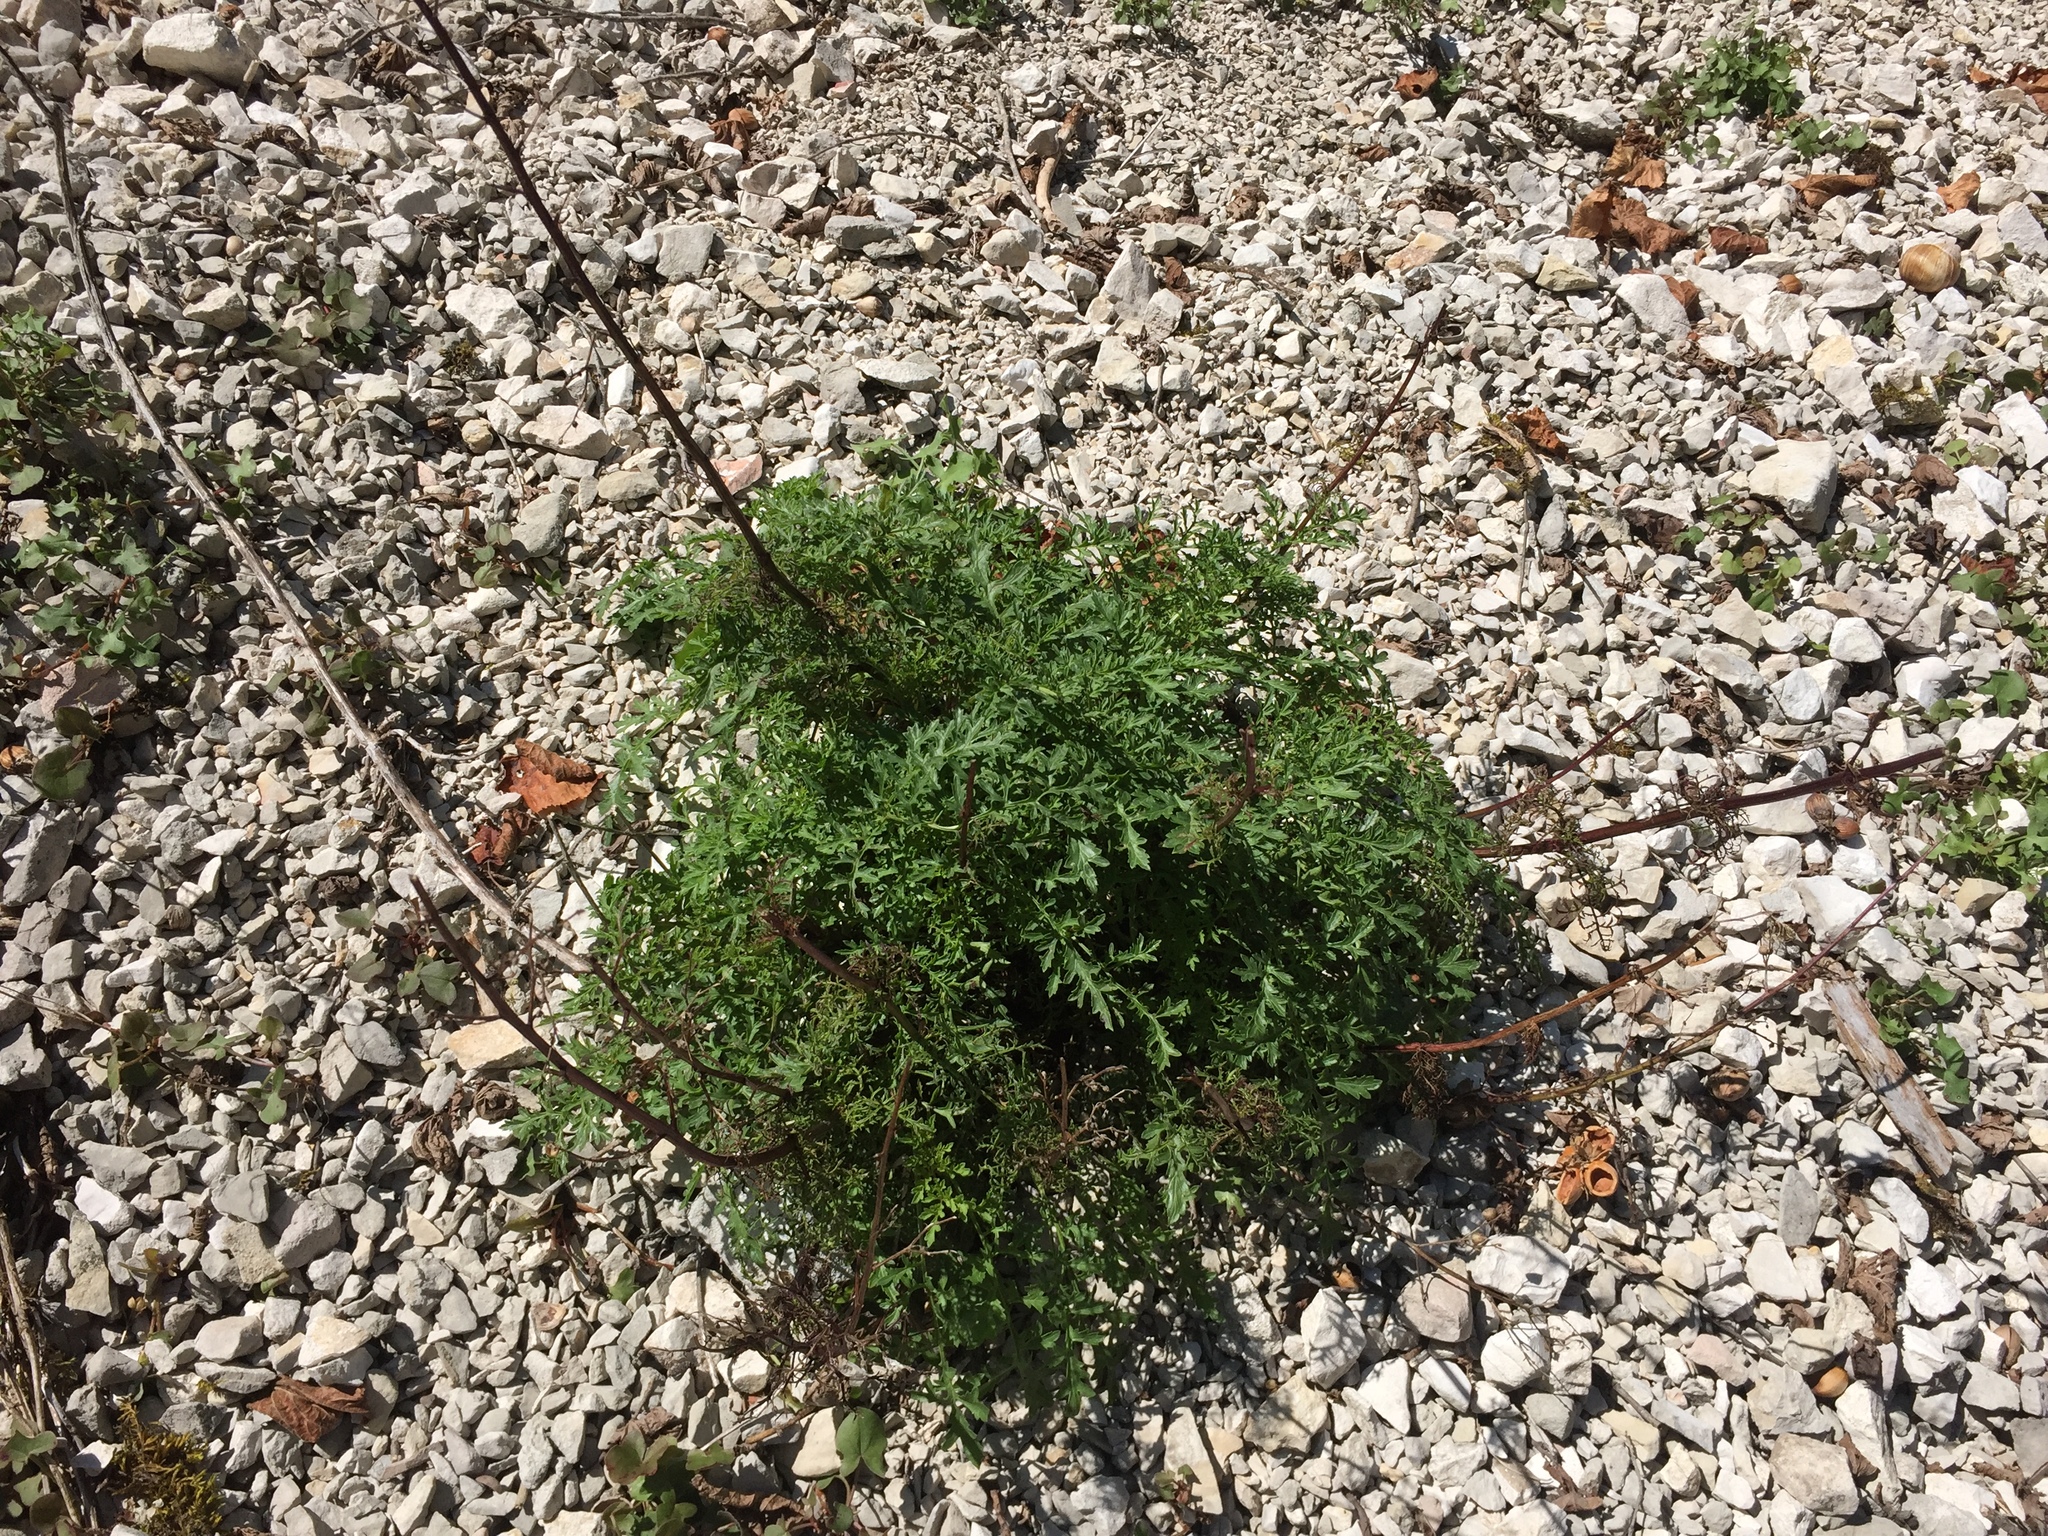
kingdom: Plantae
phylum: Tracheophyta
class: Magnoliopsida
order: Lamiales
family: Scrophulariaceae
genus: Scrophularia
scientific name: Scrophularia canina
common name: French figwort
